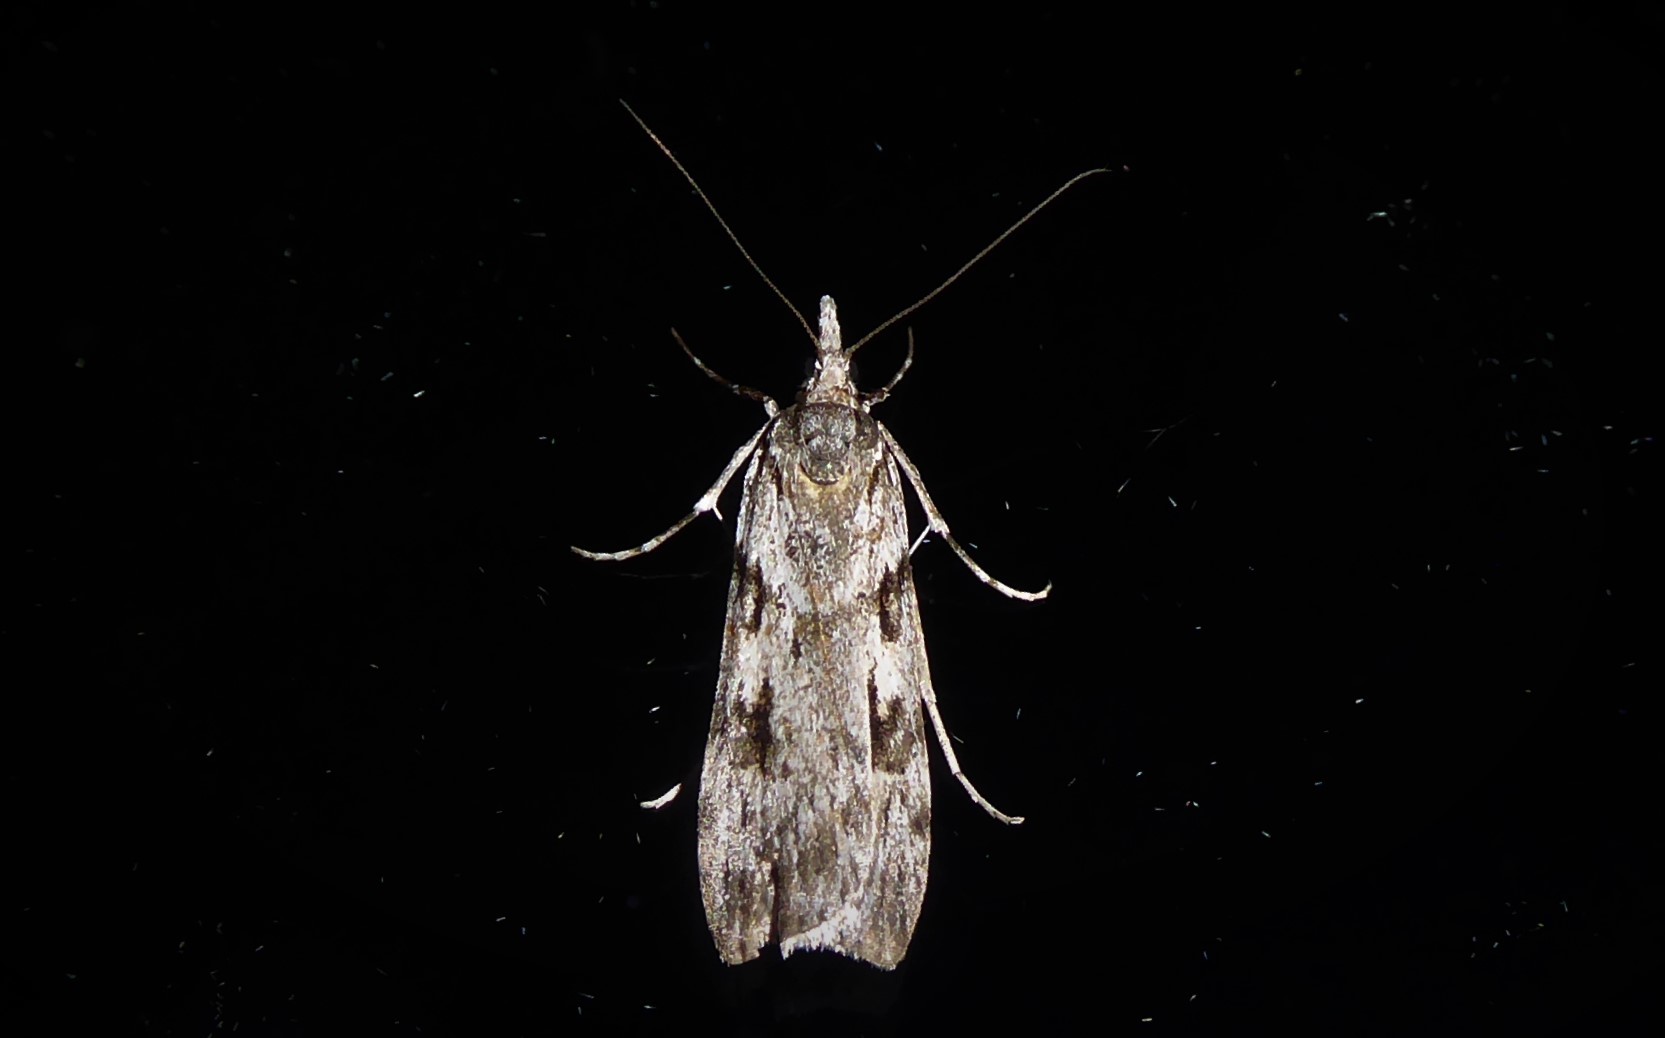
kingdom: Animalia
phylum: Arthropoda
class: Insecta
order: Lepidoptera
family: Crambidae
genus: Scoparia
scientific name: Scoparia halopis
